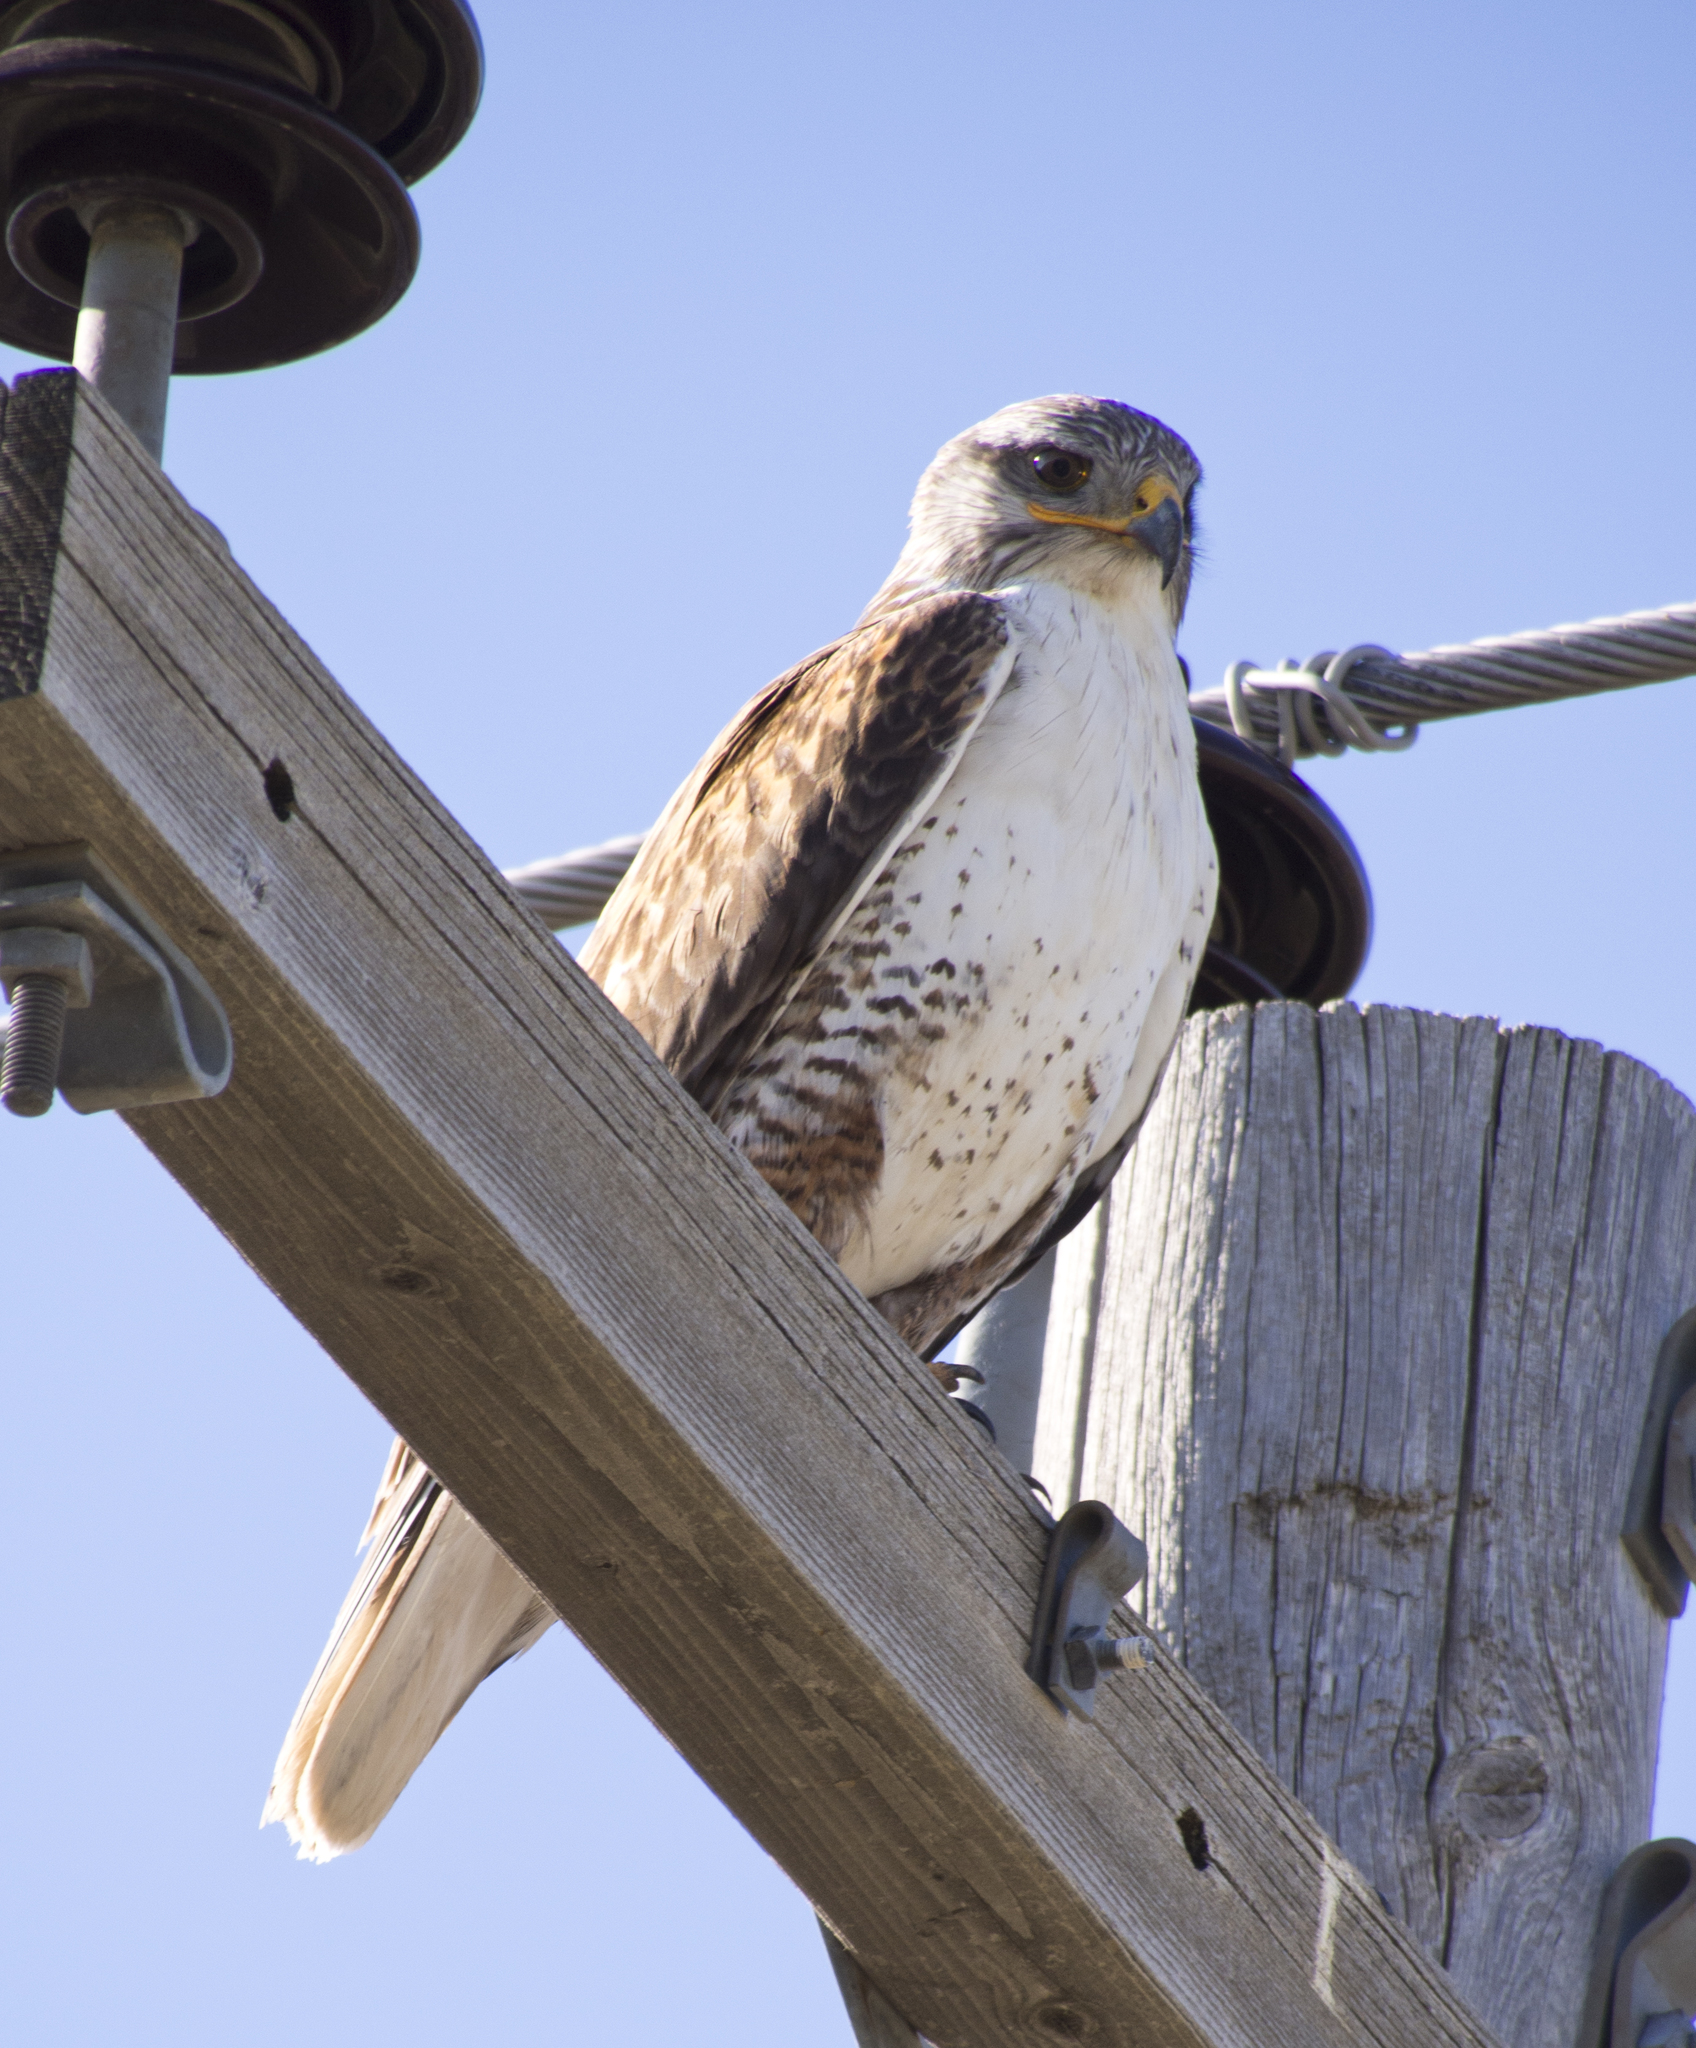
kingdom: Animalia
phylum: Chordata
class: Aves
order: Accipitriformes
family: Accipitridae
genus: Buteo
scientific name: Buteo regalis
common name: Ferruginous hawk
